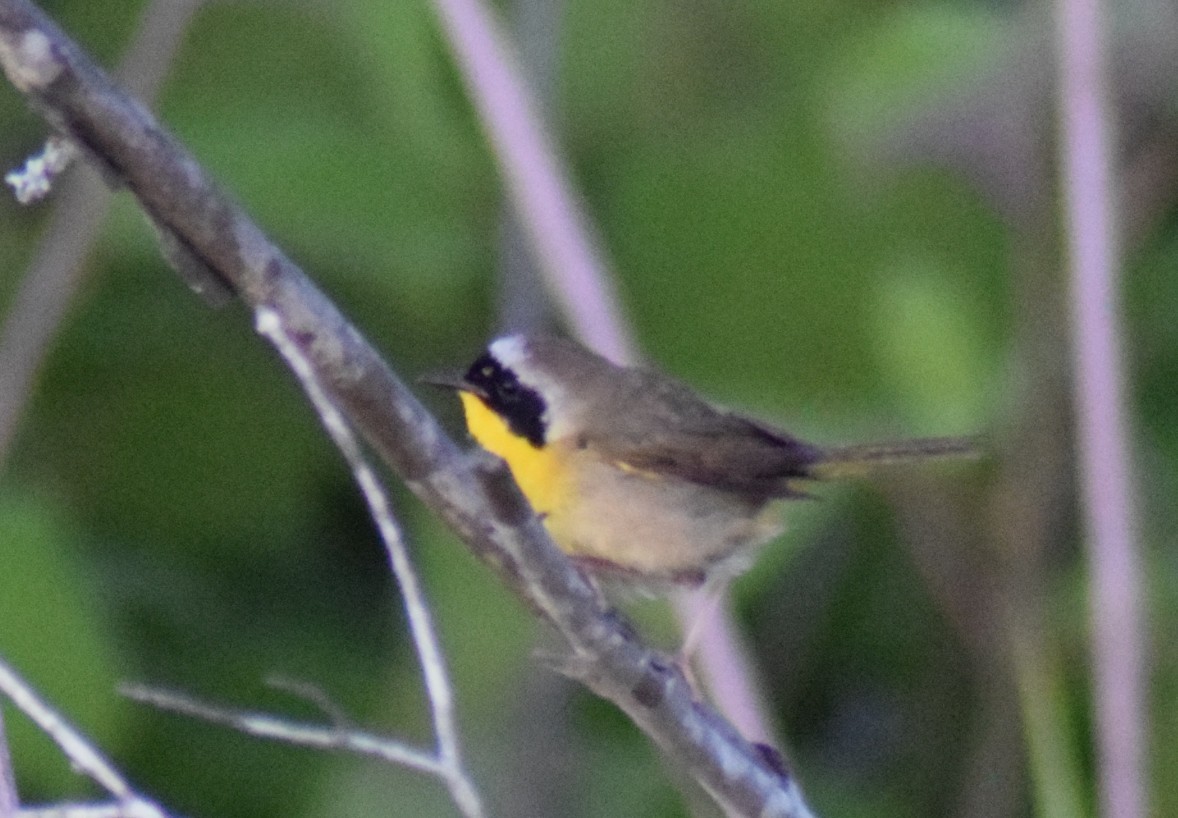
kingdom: Animalia
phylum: Chordata
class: Aves
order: Passeriformes
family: Parulidae
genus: Geothlypis
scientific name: Geothlypis trichas
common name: Common yellowthroat
